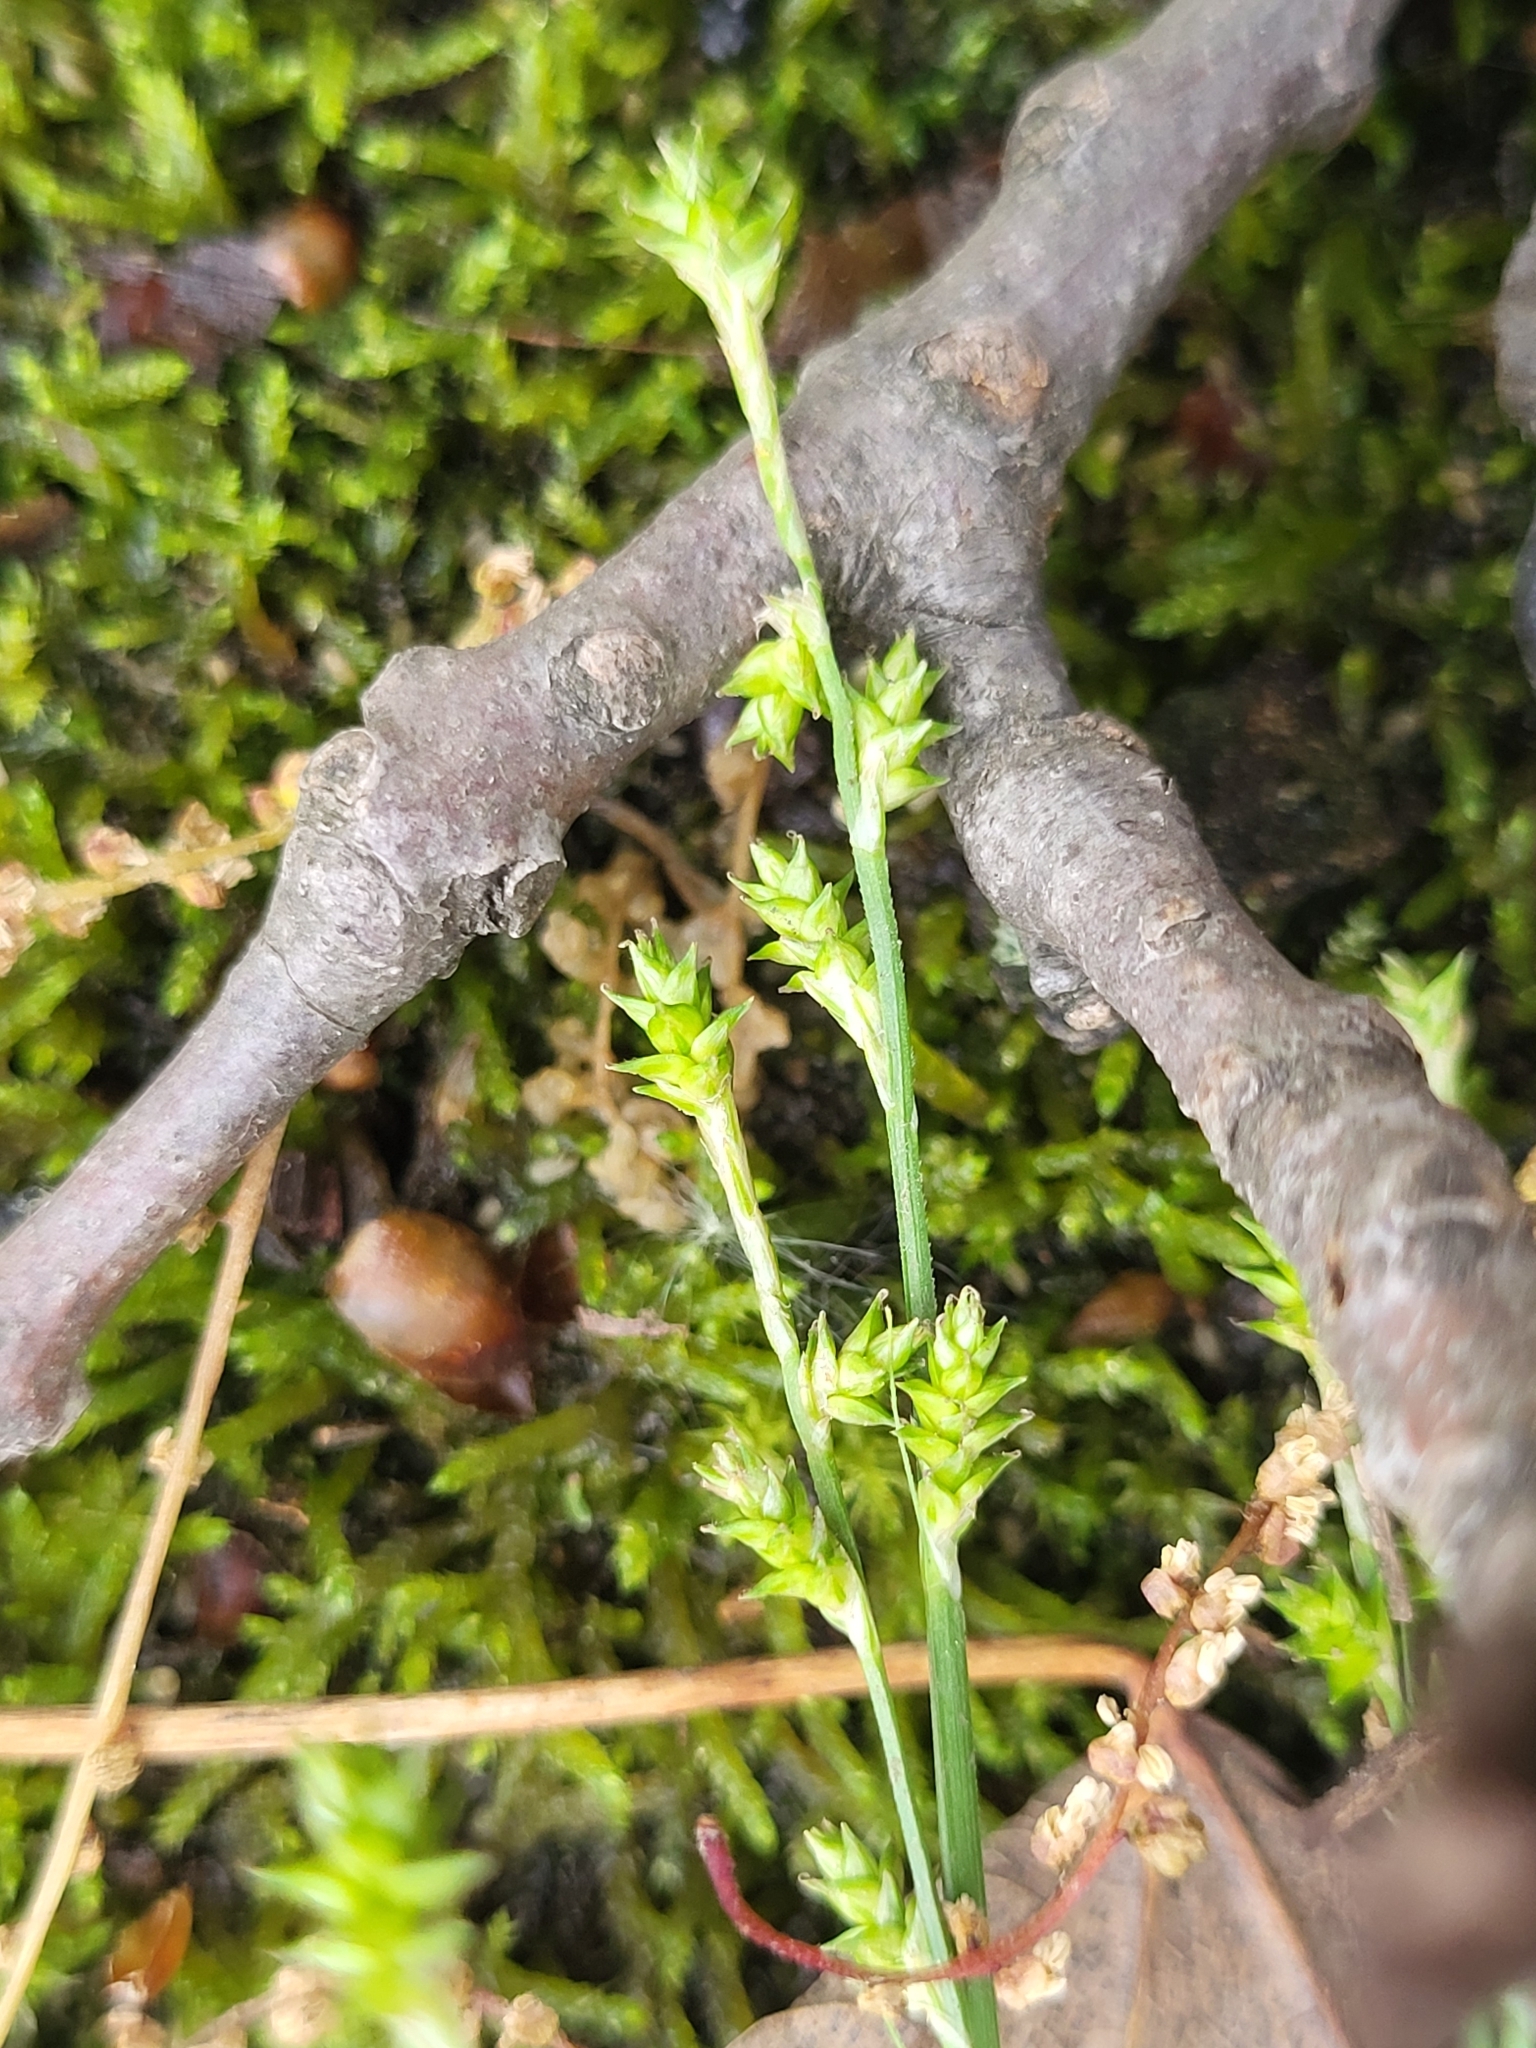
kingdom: Plantae
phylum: Tracheophyta
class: Liliopsida
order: Poales
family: Cyperaceae
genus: Carex
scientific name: Carex canescens
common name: White sedge
